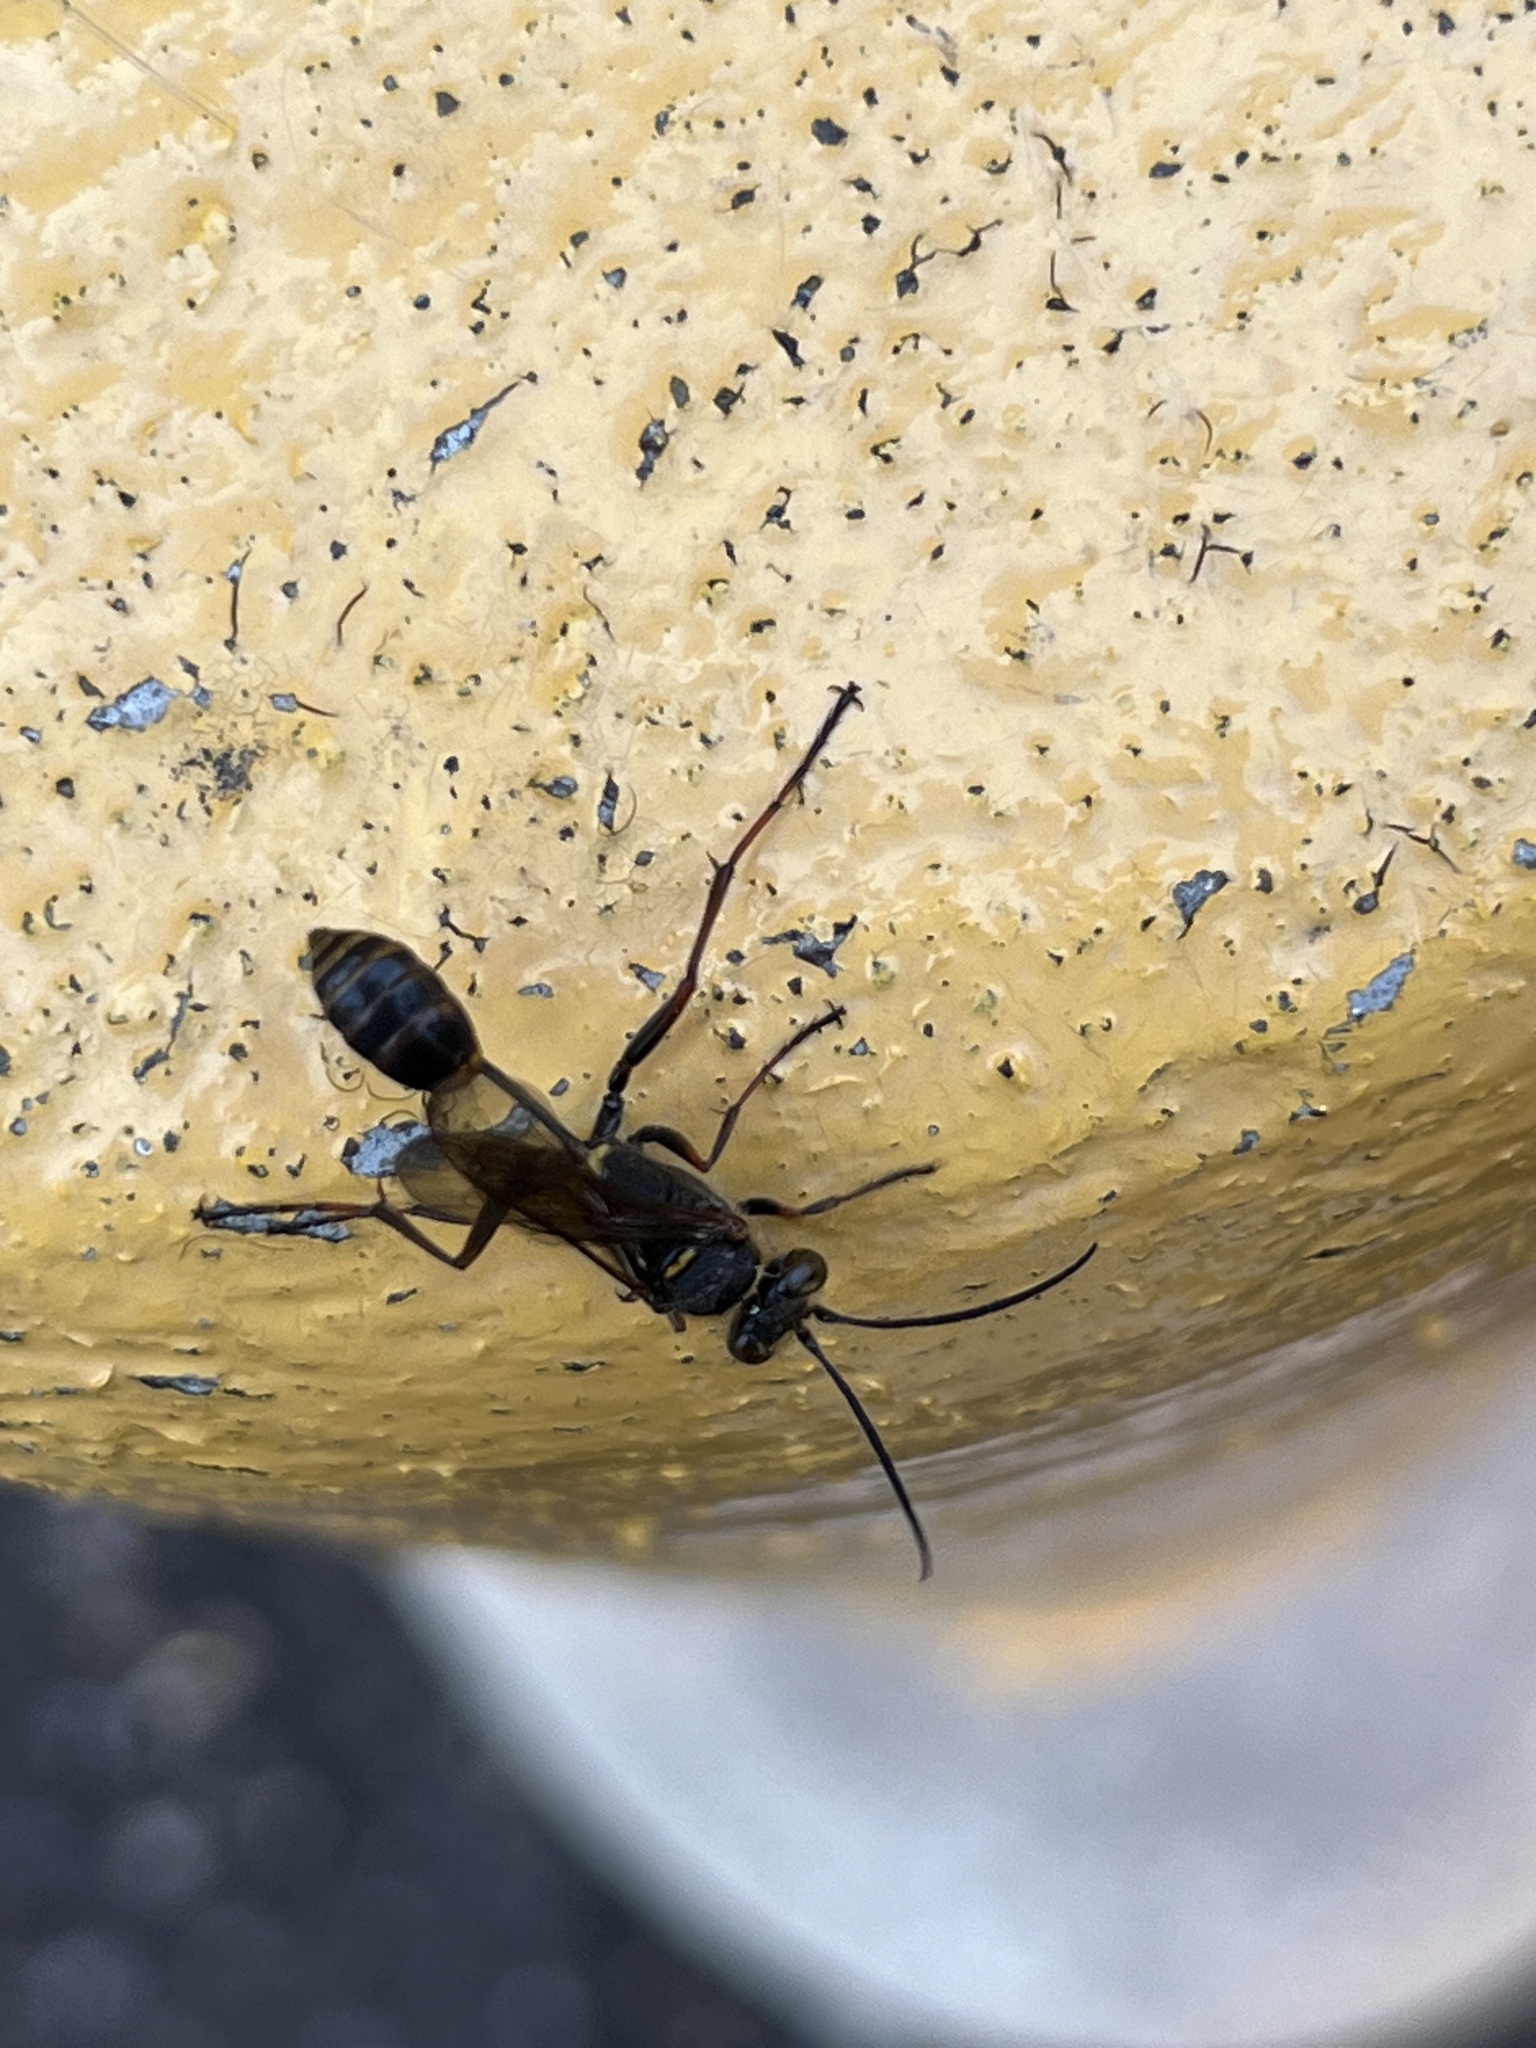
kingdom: Animalia
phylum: Arthropoda
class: Insecta
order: Hymenoptera
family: Sphecidae
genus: Sceliphron
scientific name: Sceliphron curvatum
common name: Pèlopèe
